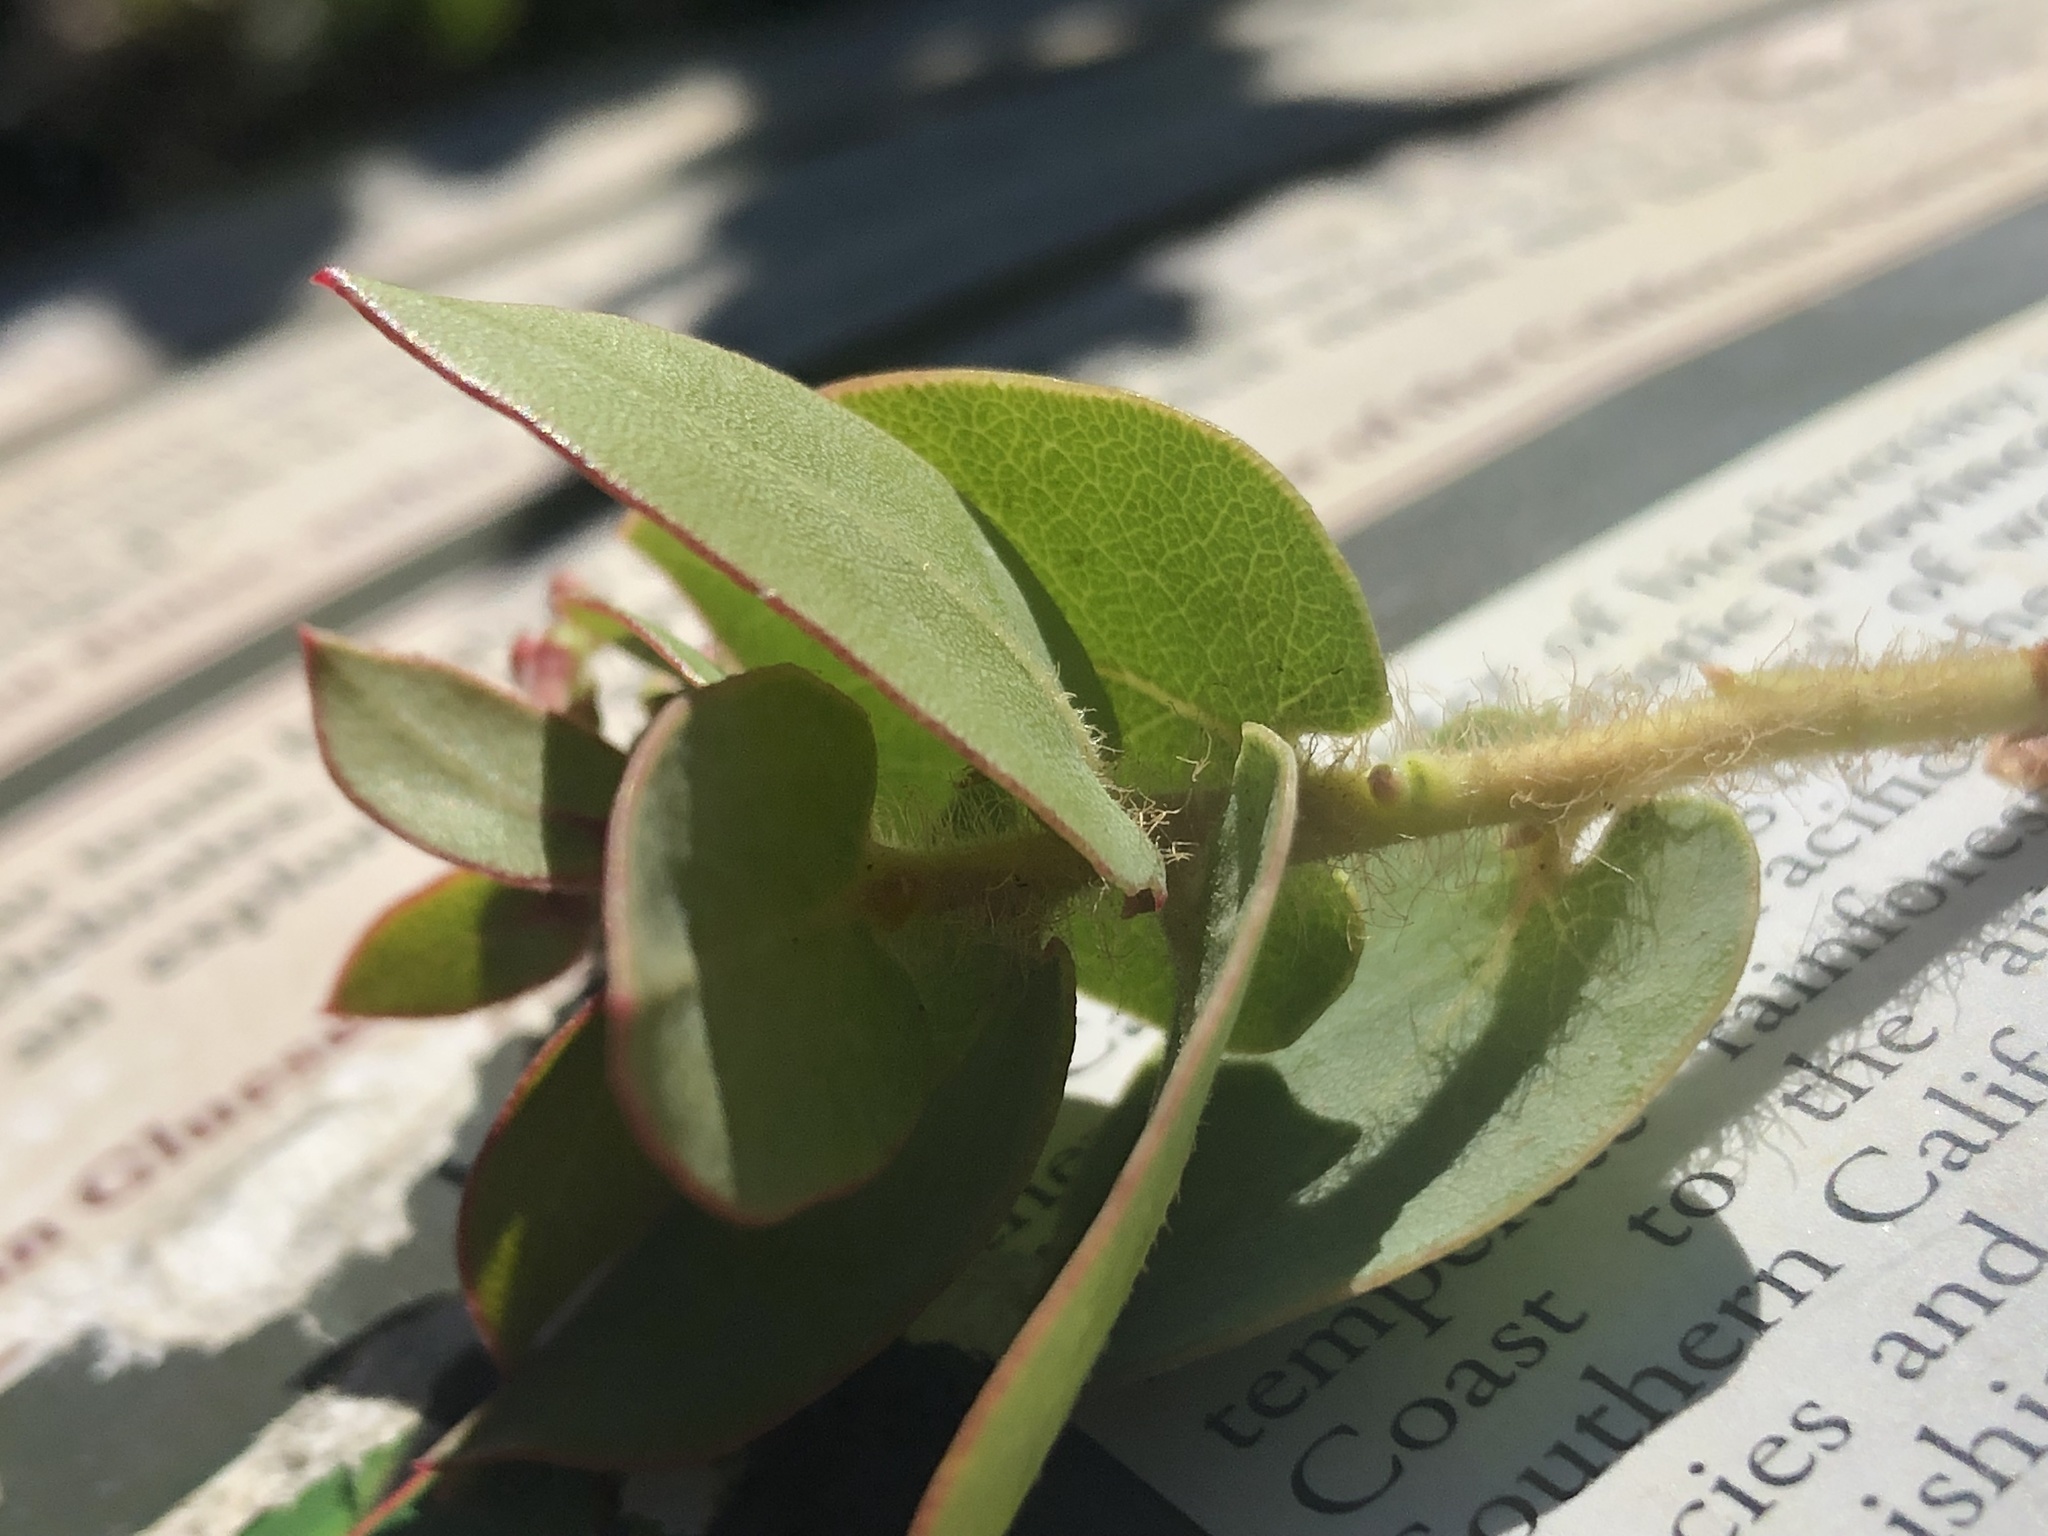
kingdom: Plantae
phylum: Tracheophyta
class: Magnoliopsida
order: Ericales
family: Ericaceae
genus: Arctostaphylos
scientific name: Arctostaphylos refugioensis
